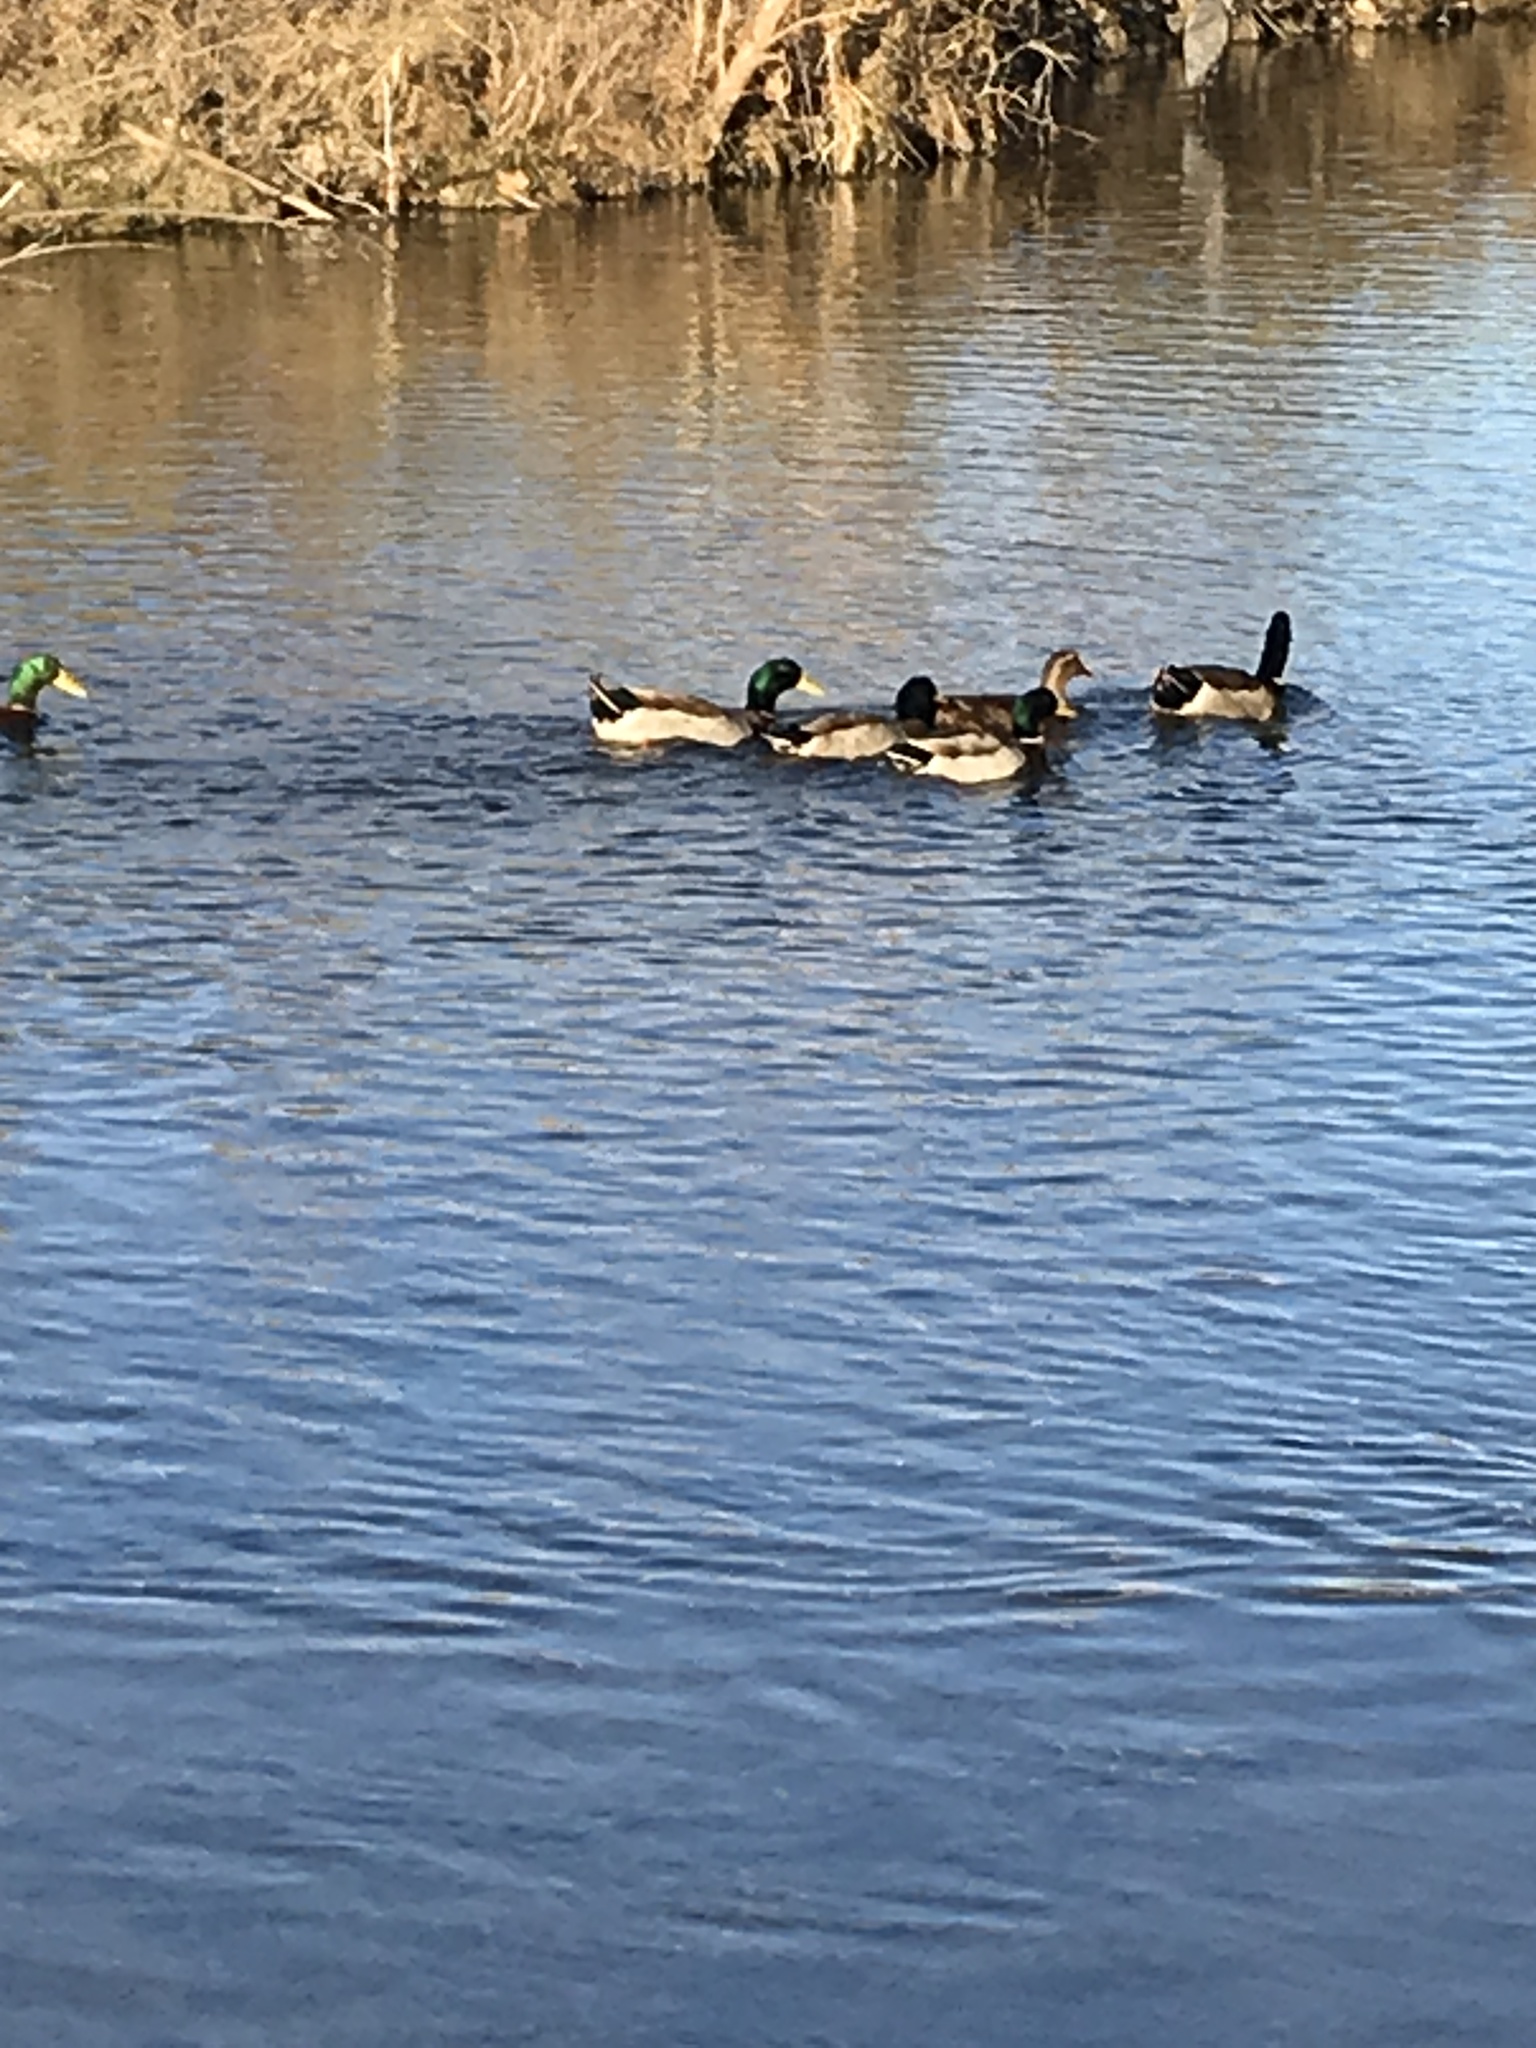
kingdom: Animalia
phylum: Chordata
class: Aves
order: Anseriformes
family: Anatidae
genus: Anas
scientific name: Anas platyrhynchos
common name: Mallard
